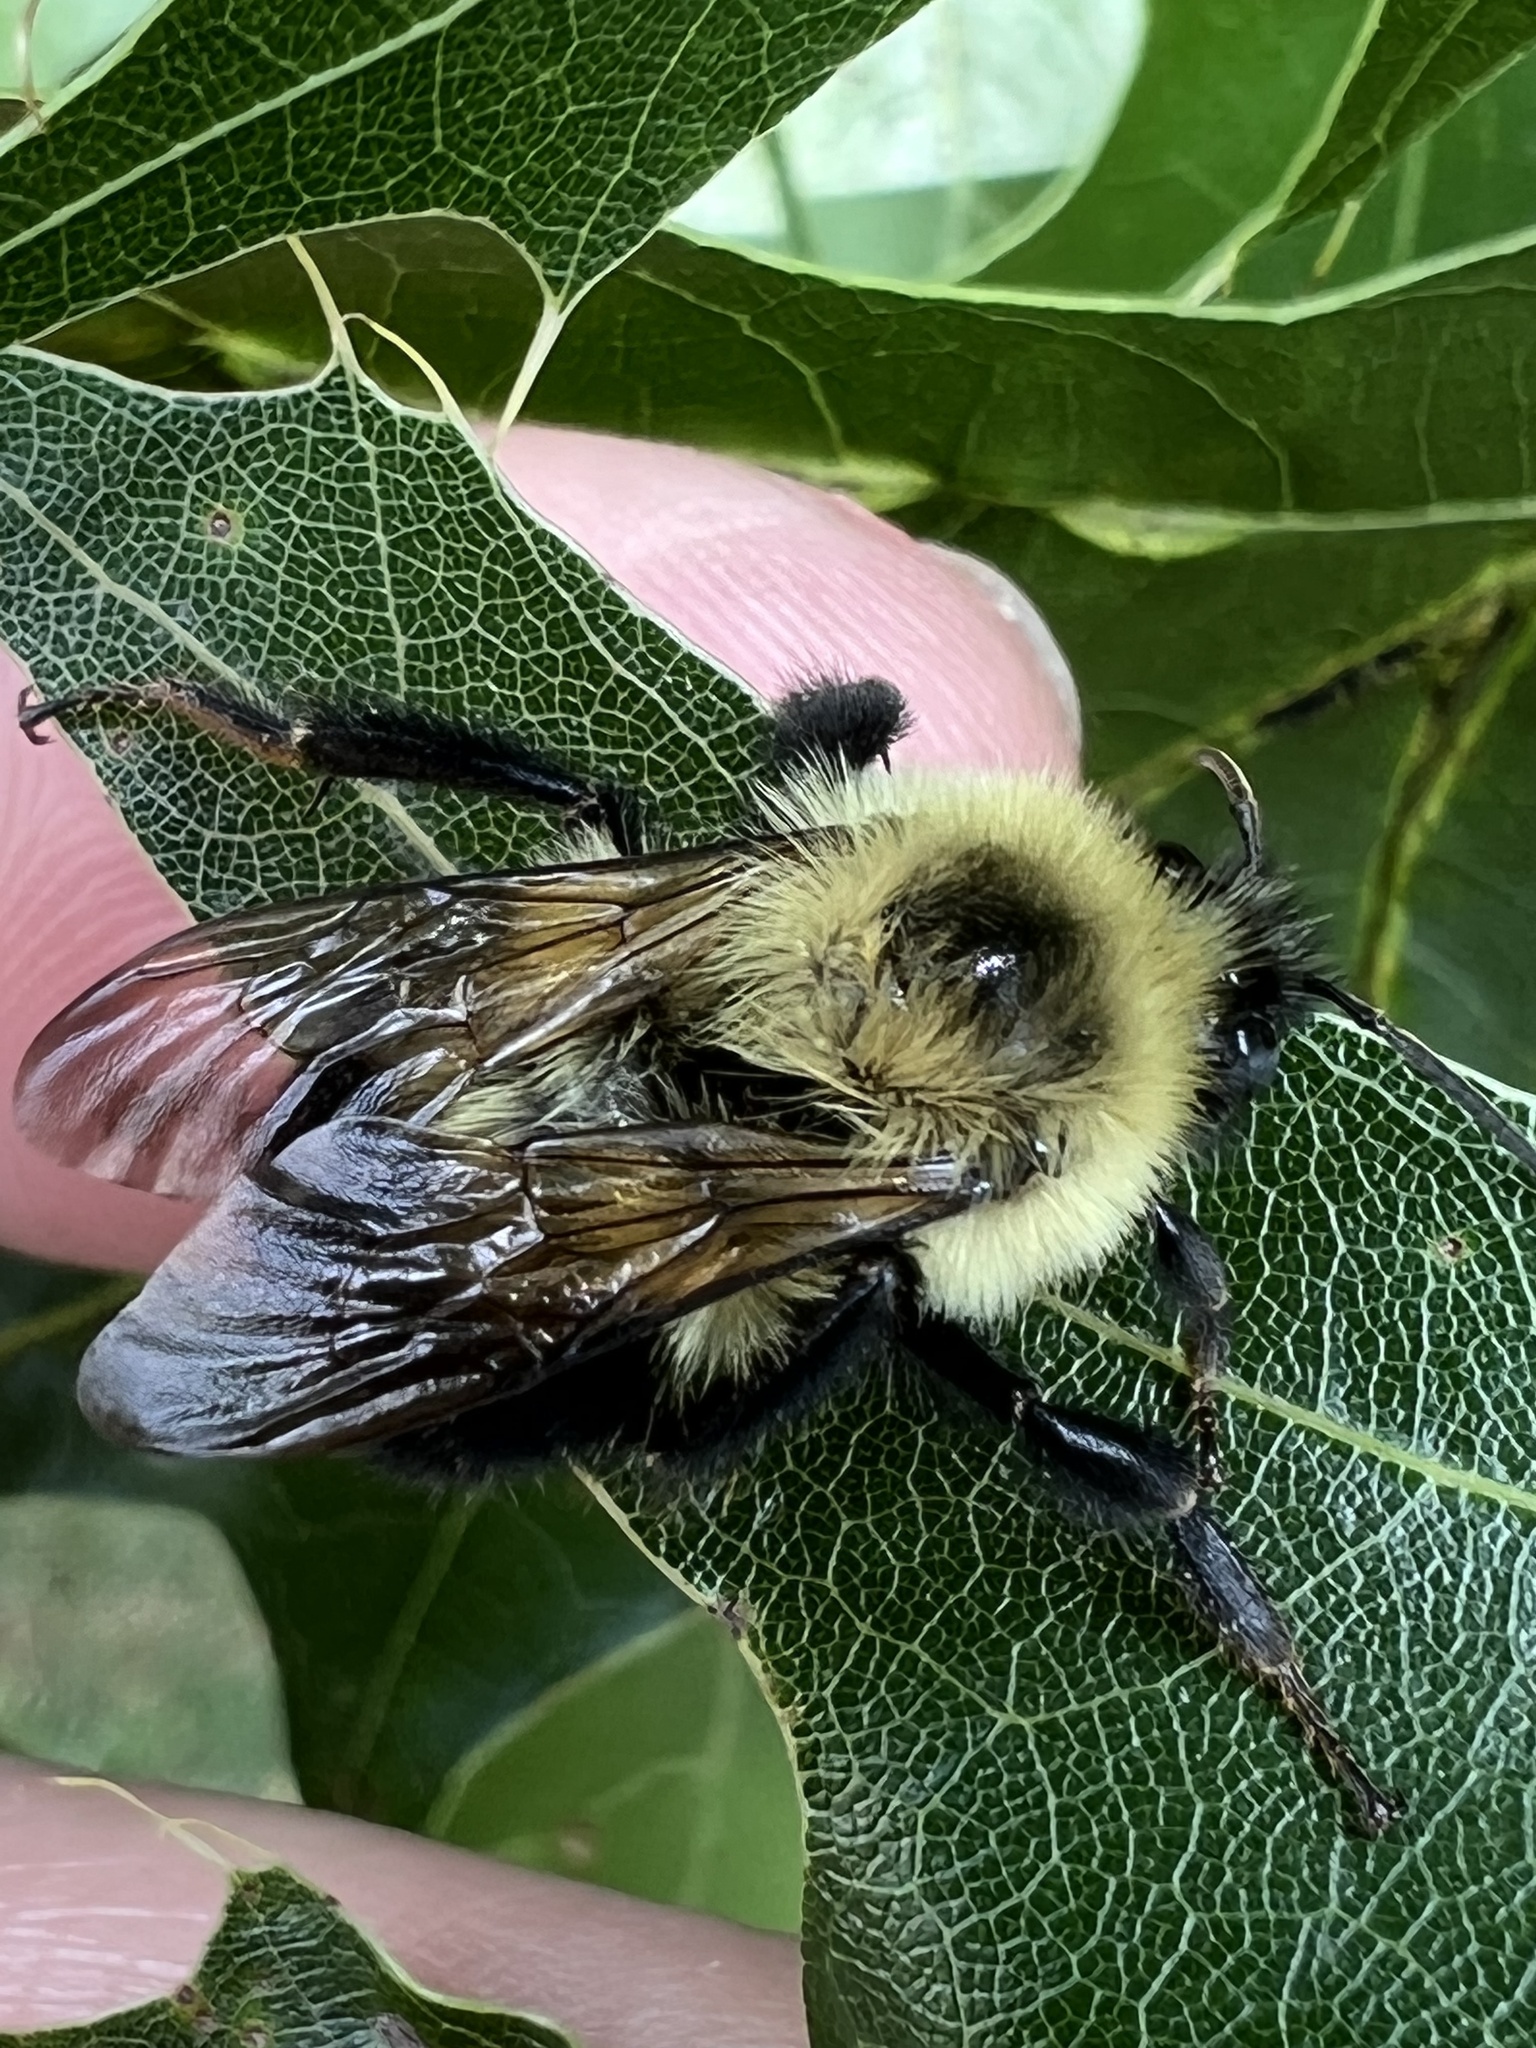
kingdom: Animalia
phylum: Arthropoda
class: Insecta
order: Hymenoptera
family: Apidae
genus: Bombus
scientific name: Bombus bimaculatus
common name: Two-spotted bumble bee
